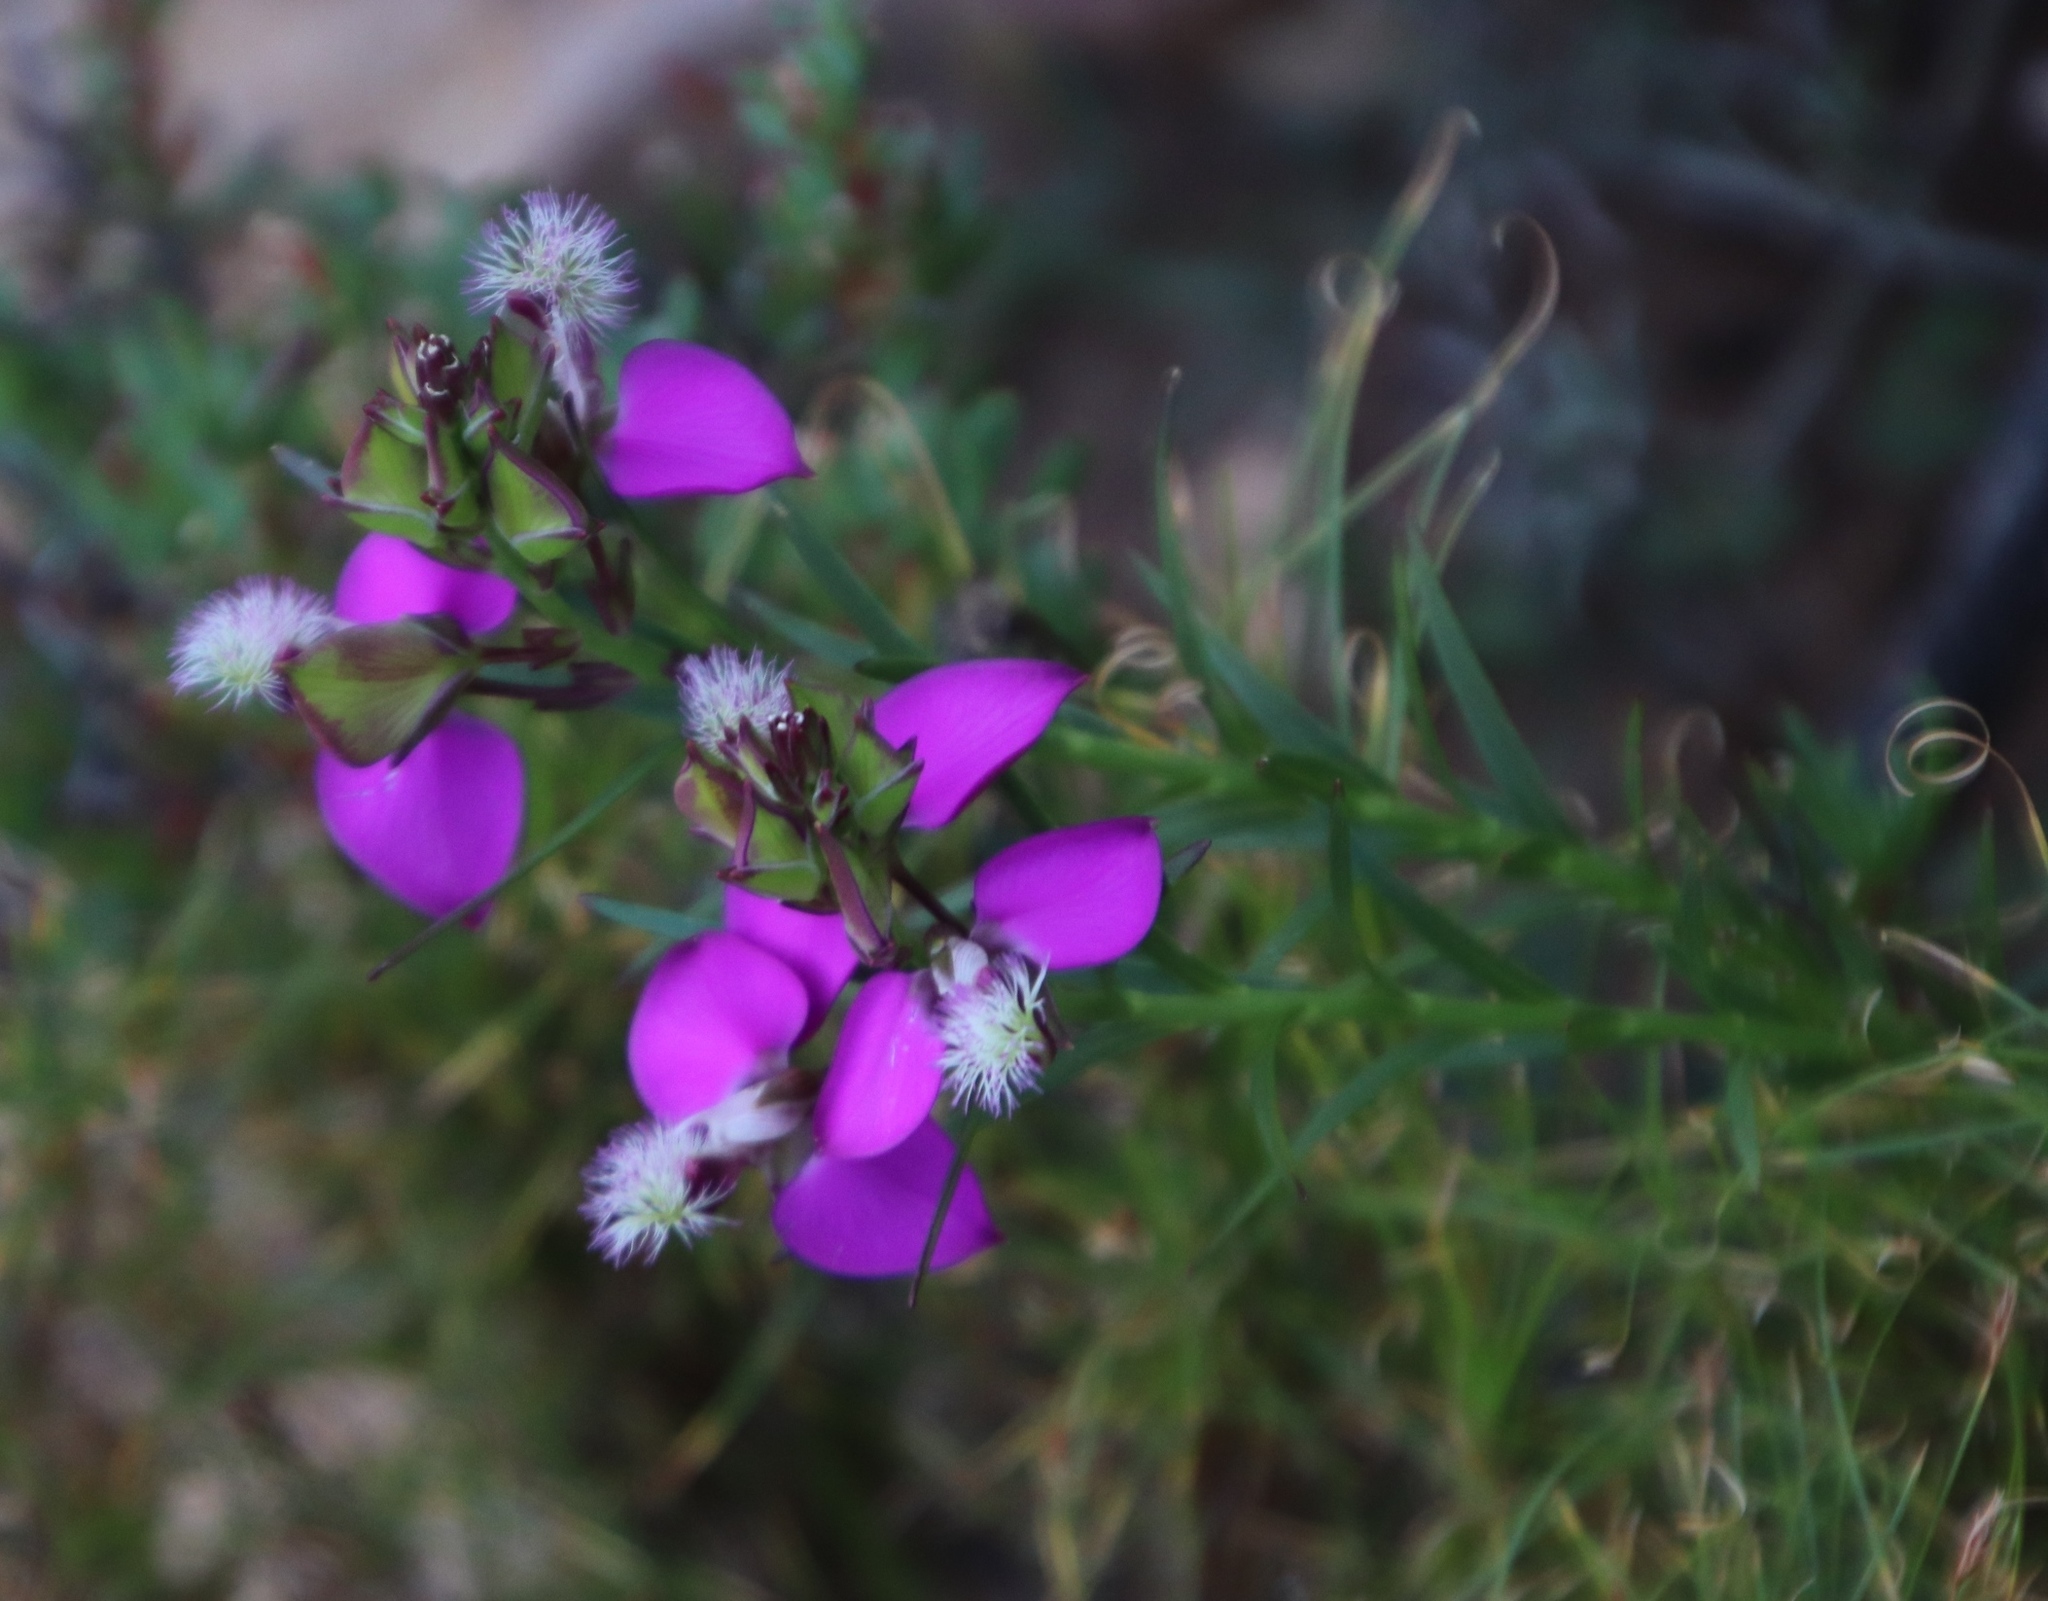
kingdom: Plantae
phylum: Tracheophyta
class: Magnoliopsida
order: Fabales
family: Polygalaceae
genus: Polygala
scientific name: Polygala bracteolata
